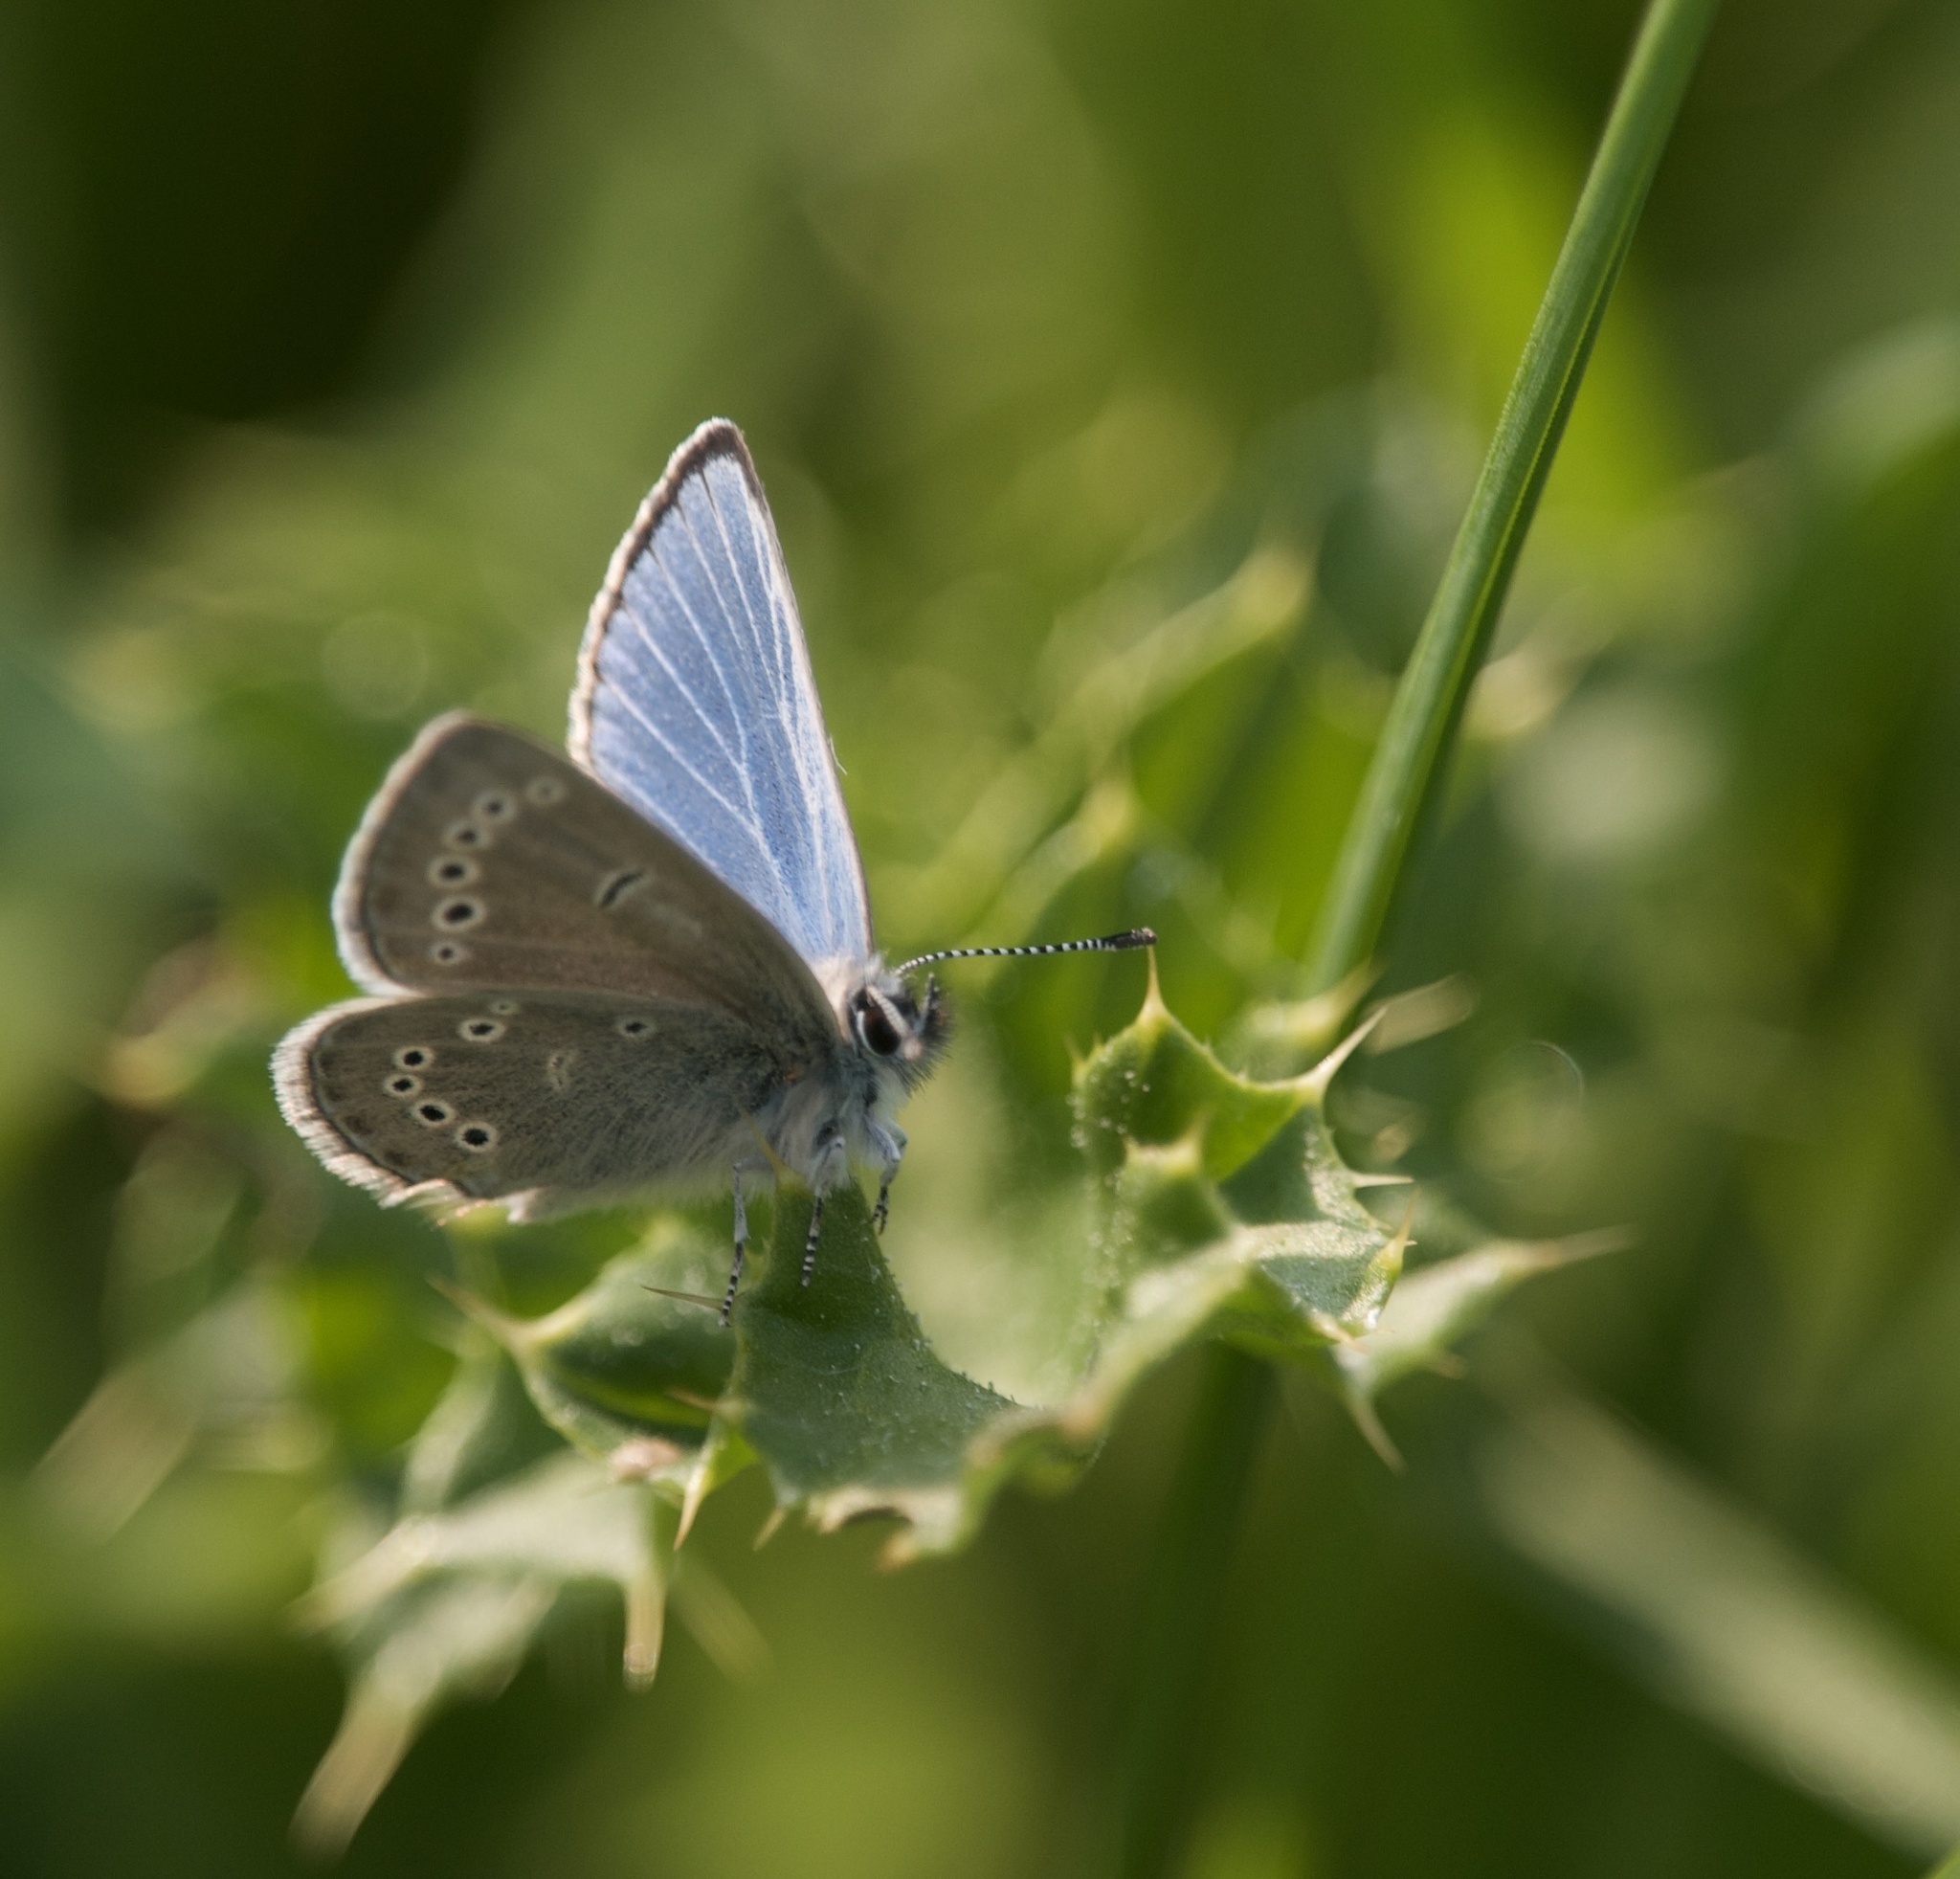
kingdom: Animalia
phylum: Arthropoda
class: Insecta
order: Lepidoptera
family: Lycaenidae
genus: Glaucopsyche
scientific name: Glaucopsyche lygdamus
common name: Silvery blue
